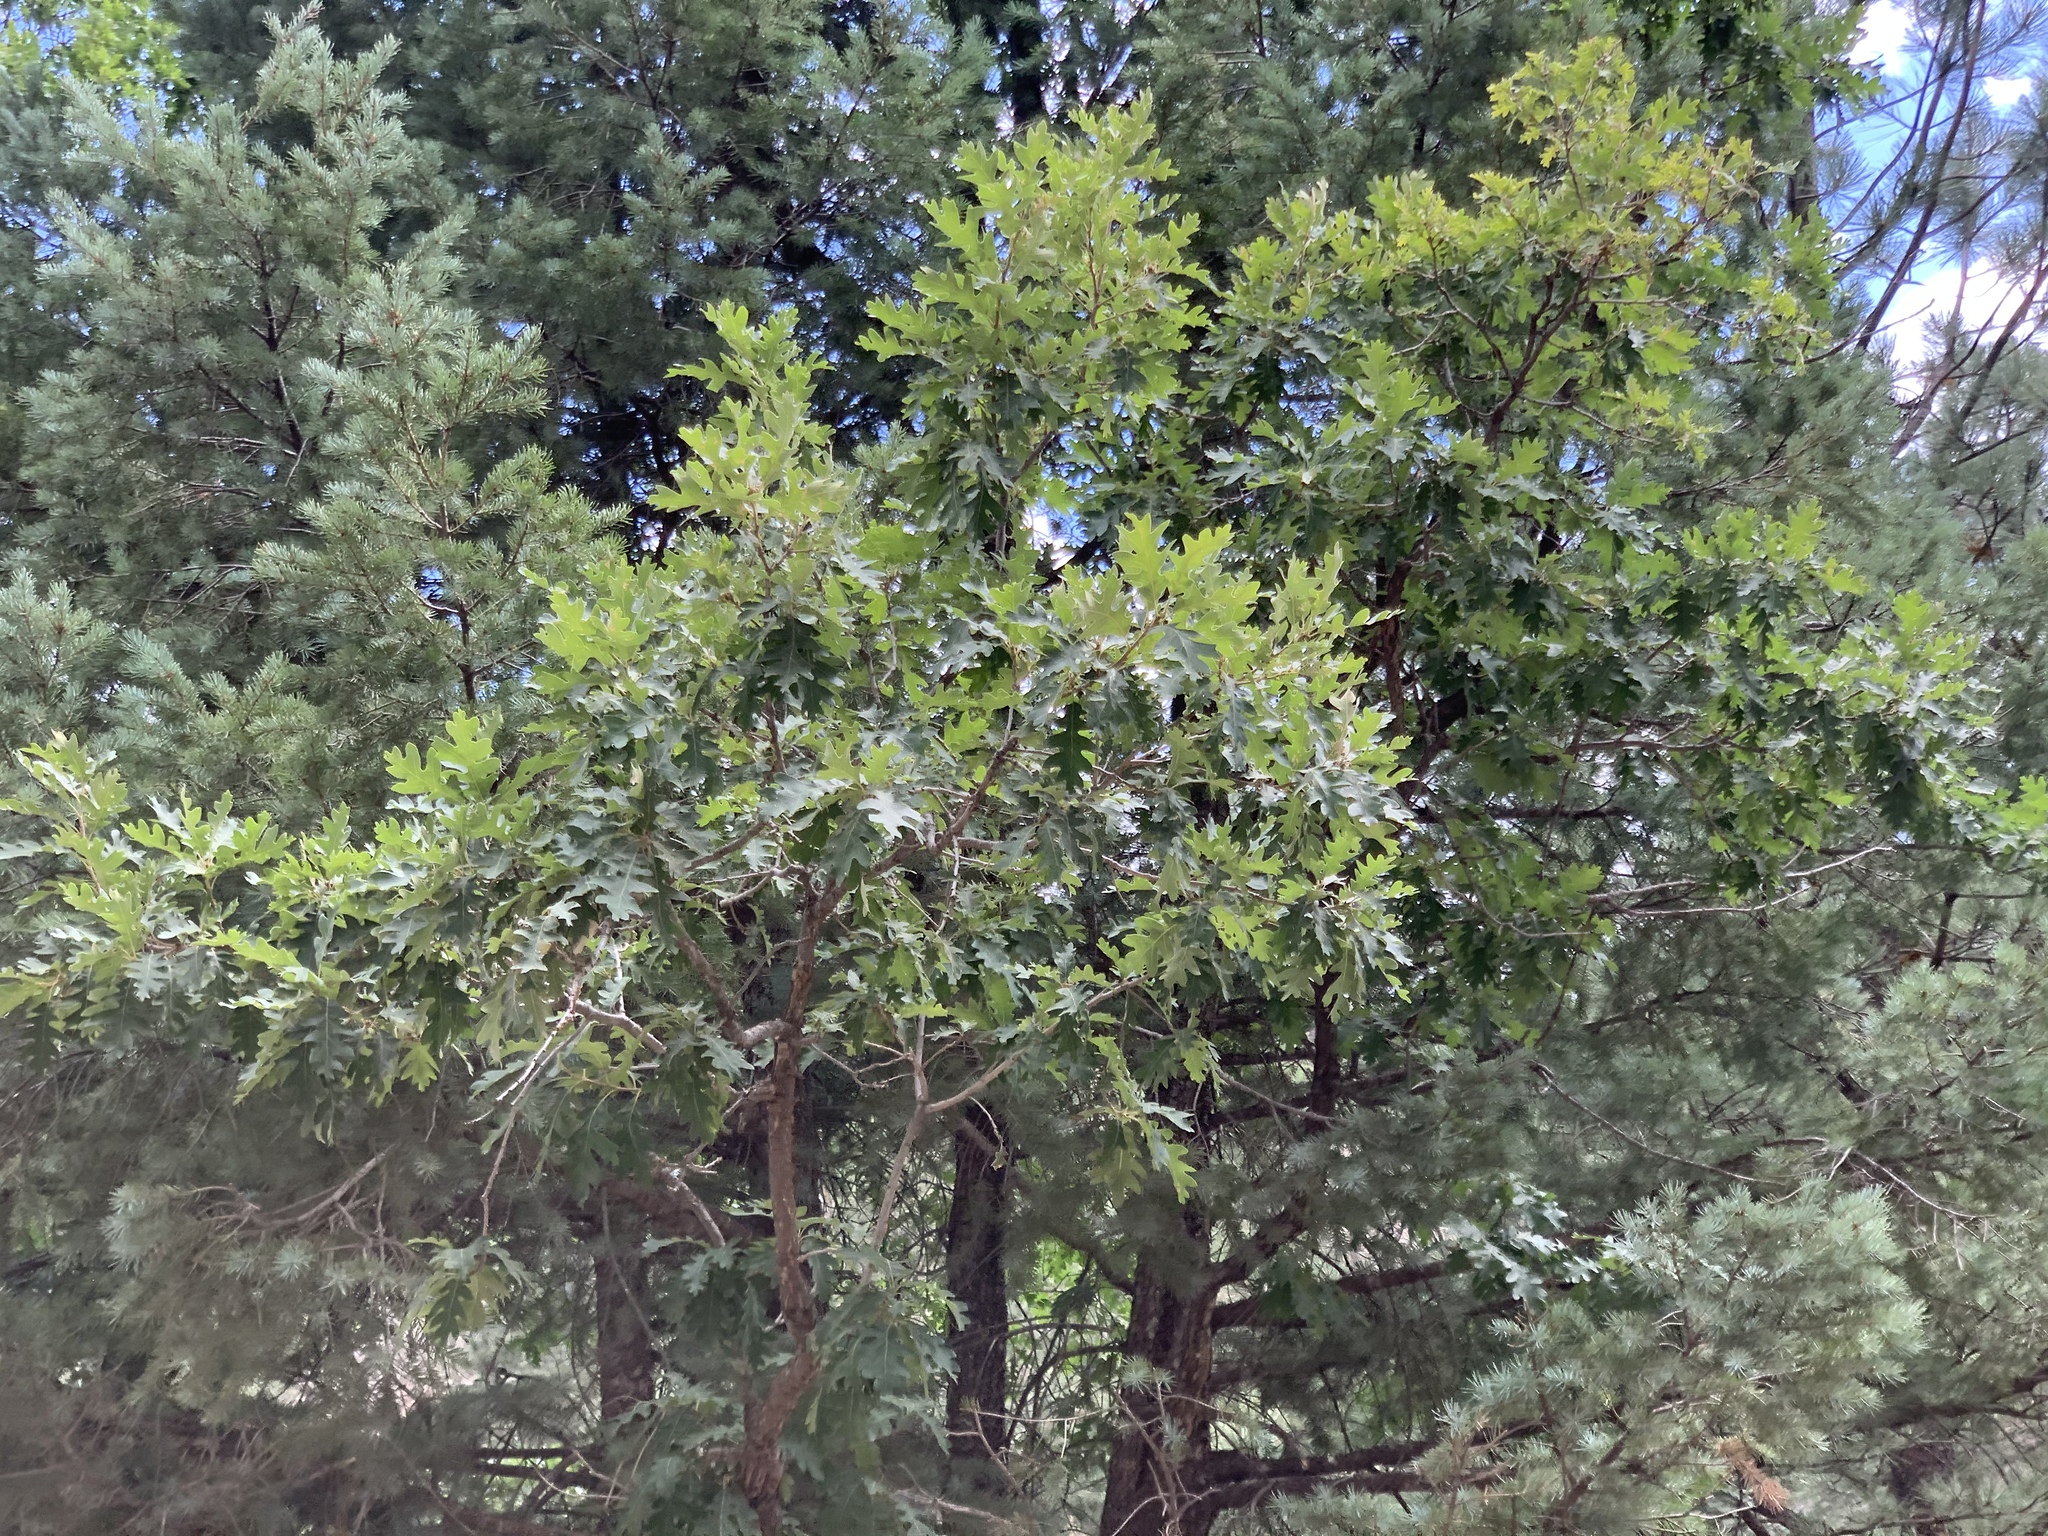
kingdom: Plantae
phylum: Tracheophyta
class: Magnoliopsida
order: Fagales
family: Fagaceae
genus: Quercus
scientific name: Quercus gambelii
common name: Gambel oak
